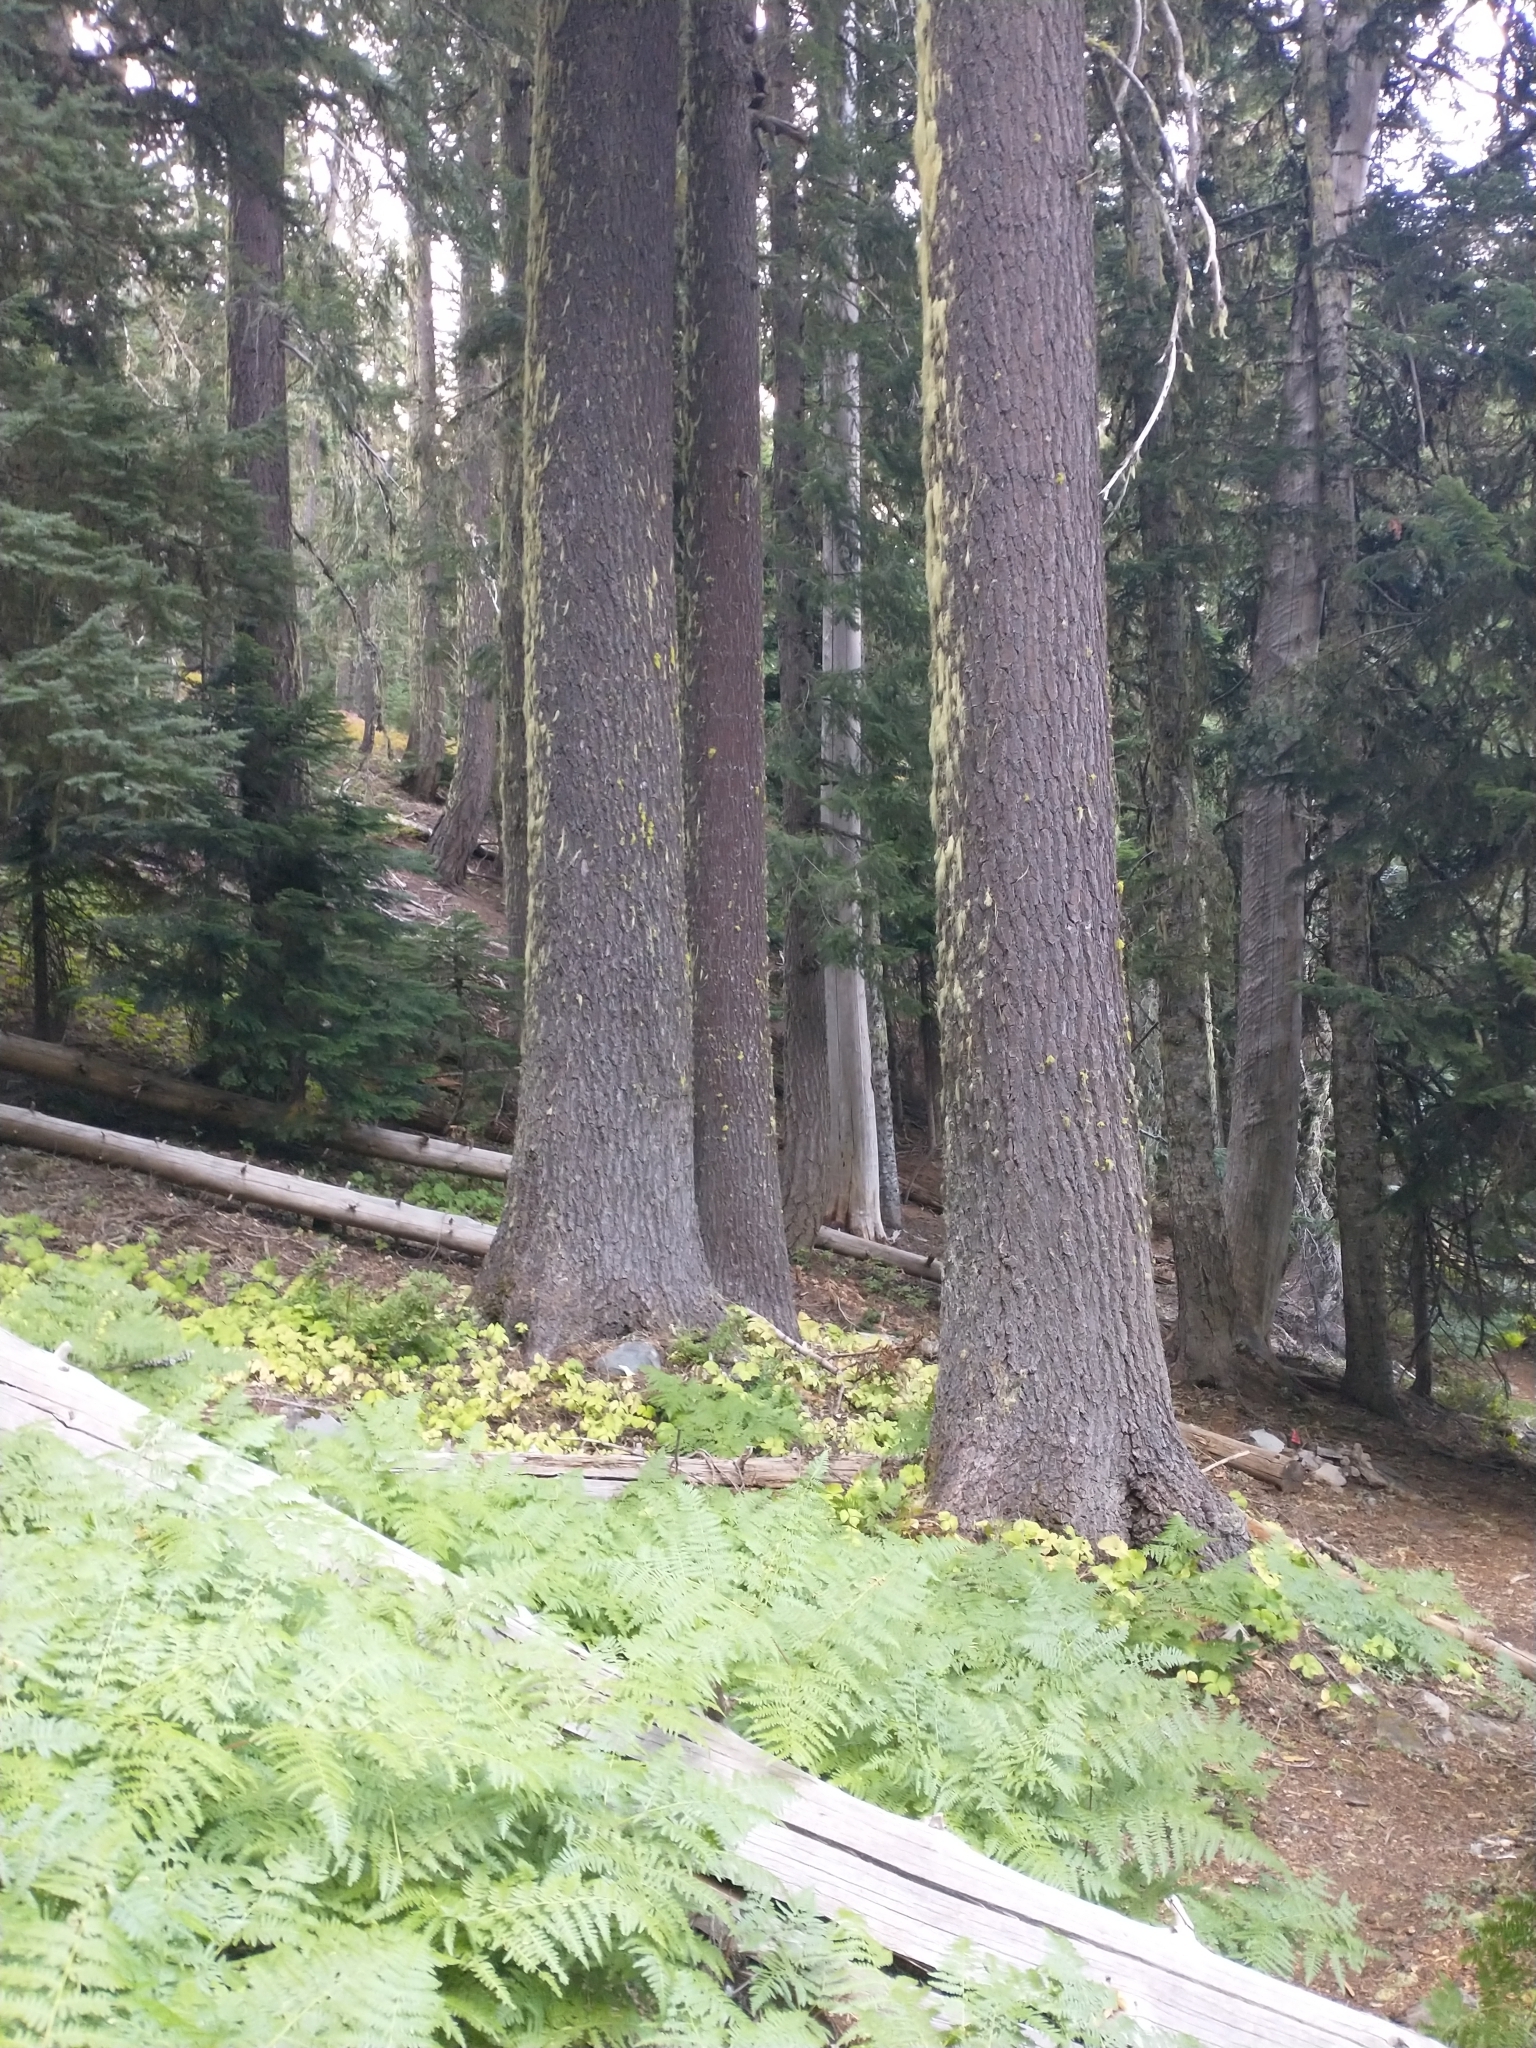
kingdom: Plantae
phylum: Tracheophyta
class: Polypodiopsida
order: Polypodiales
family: Dennstaedtiaceae
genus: Pteridium
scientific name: Pteridium aquilinum
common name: Bracken
